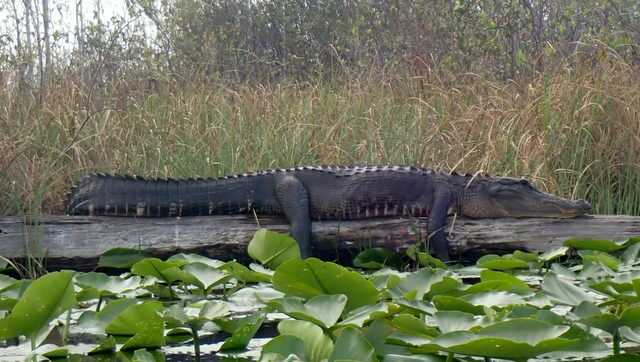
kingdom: Animalia
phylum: Chordata
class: Crocodylia
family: Alligatoridae
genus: Alligator
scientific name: Alligator mississippiensis
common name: American alligator
